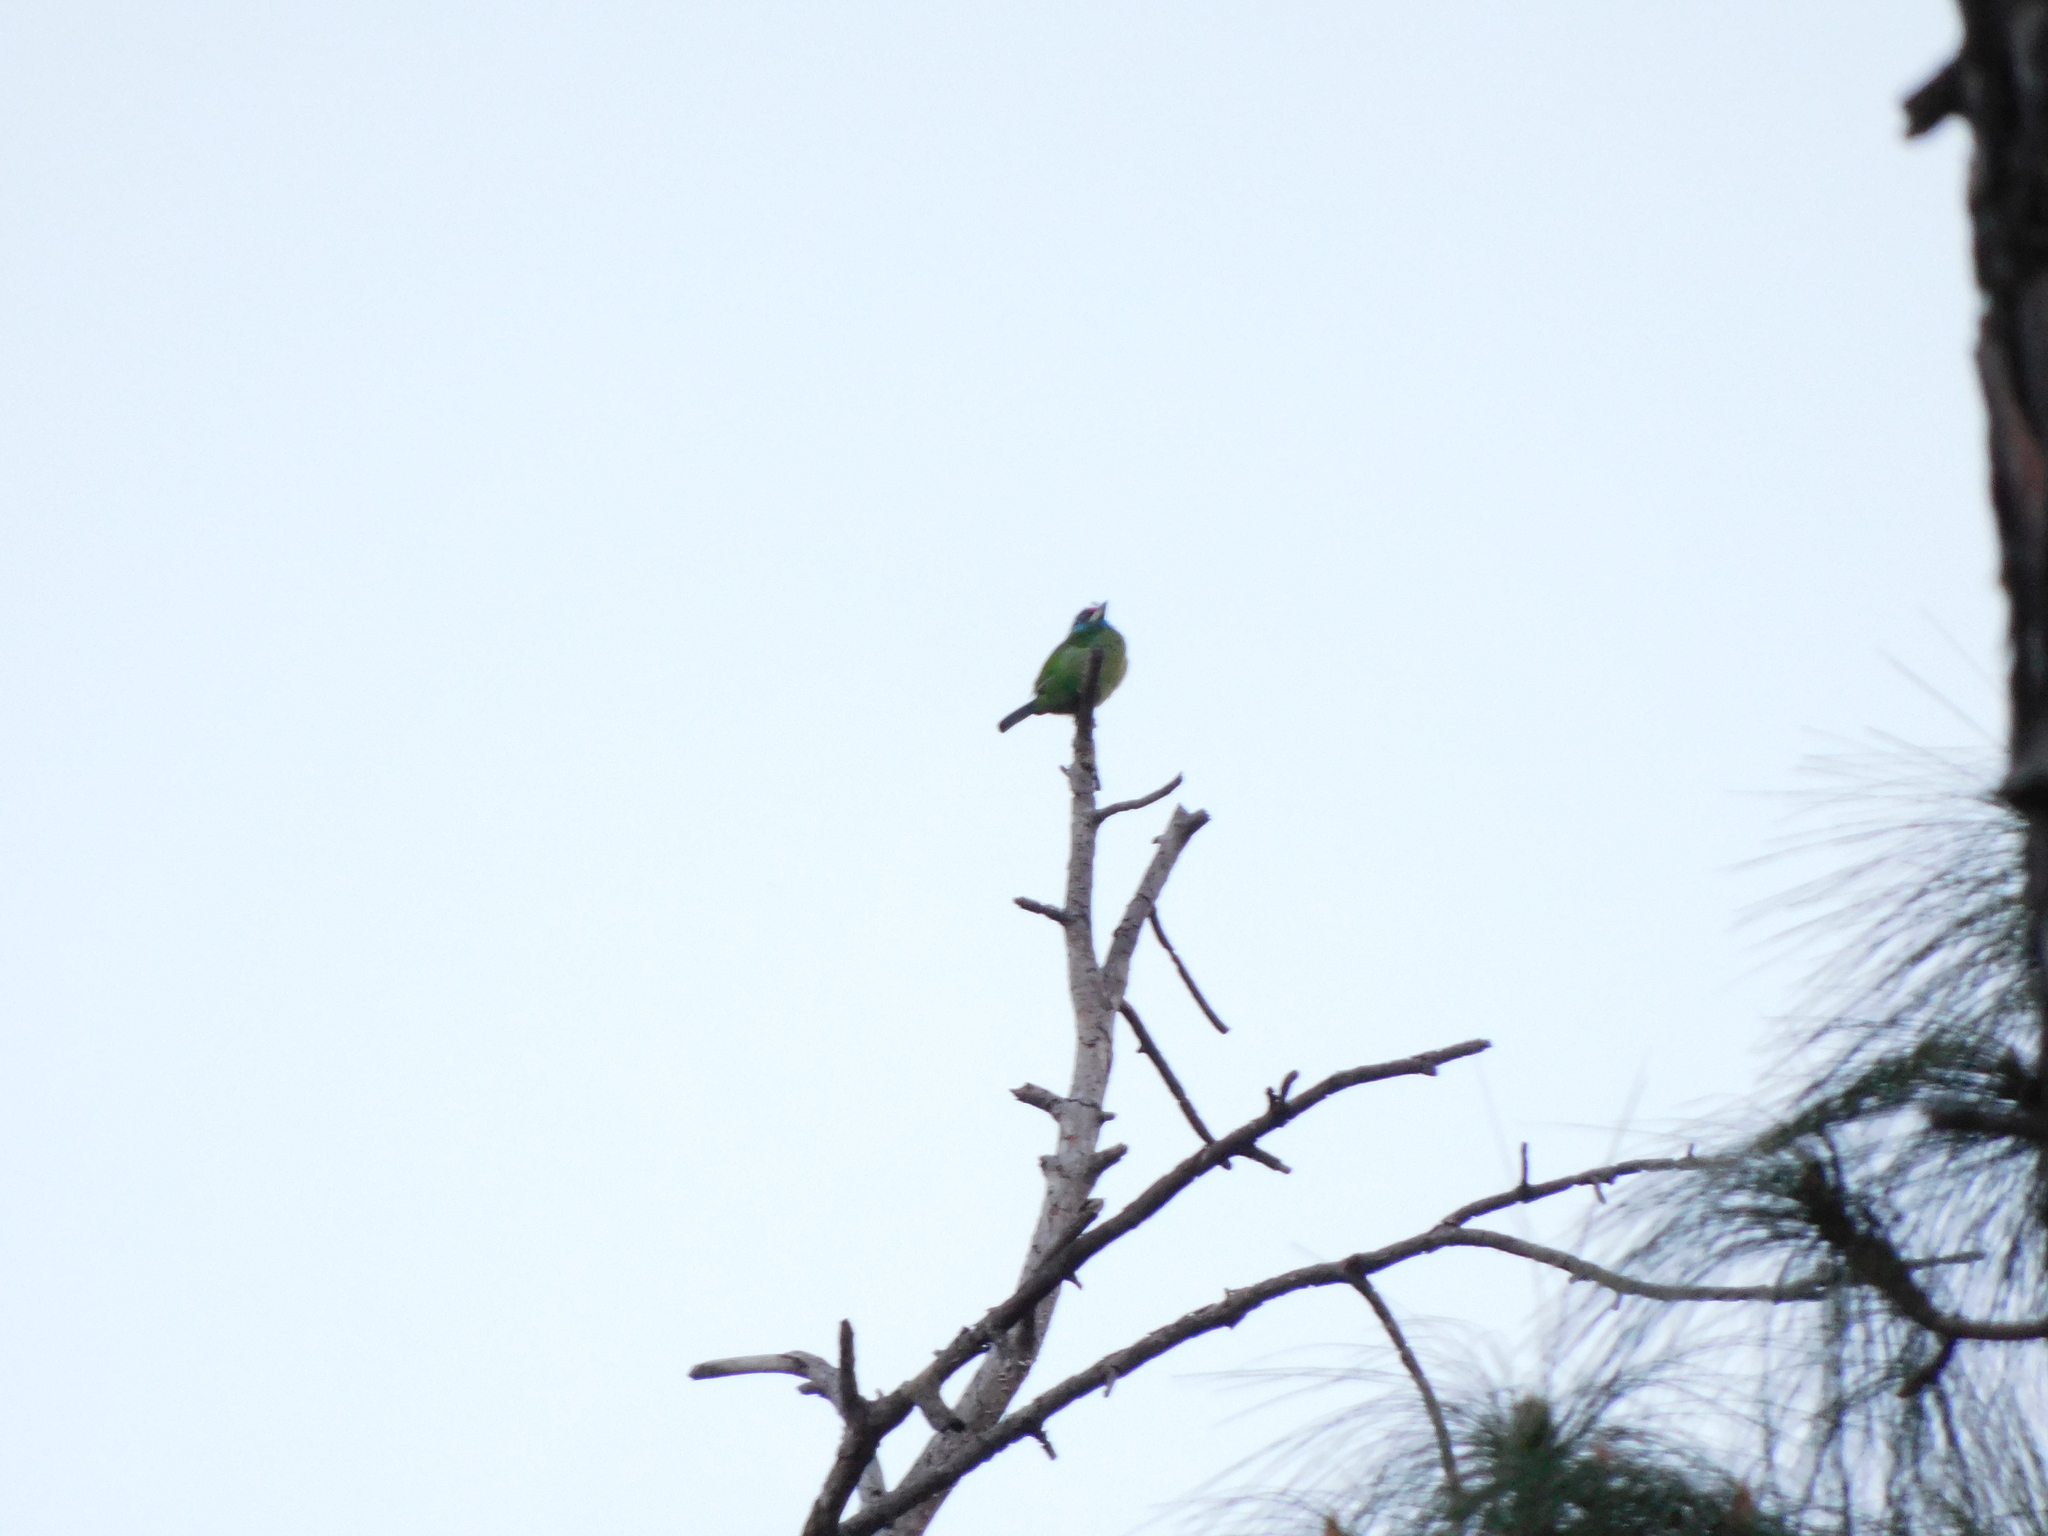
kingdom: Animalia
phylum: Chordata
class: Aves
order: Piciformes
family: Megalaimidae
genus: Psilopogon
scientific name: Psilopogon asiaticus
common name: Blue-throated barbet
